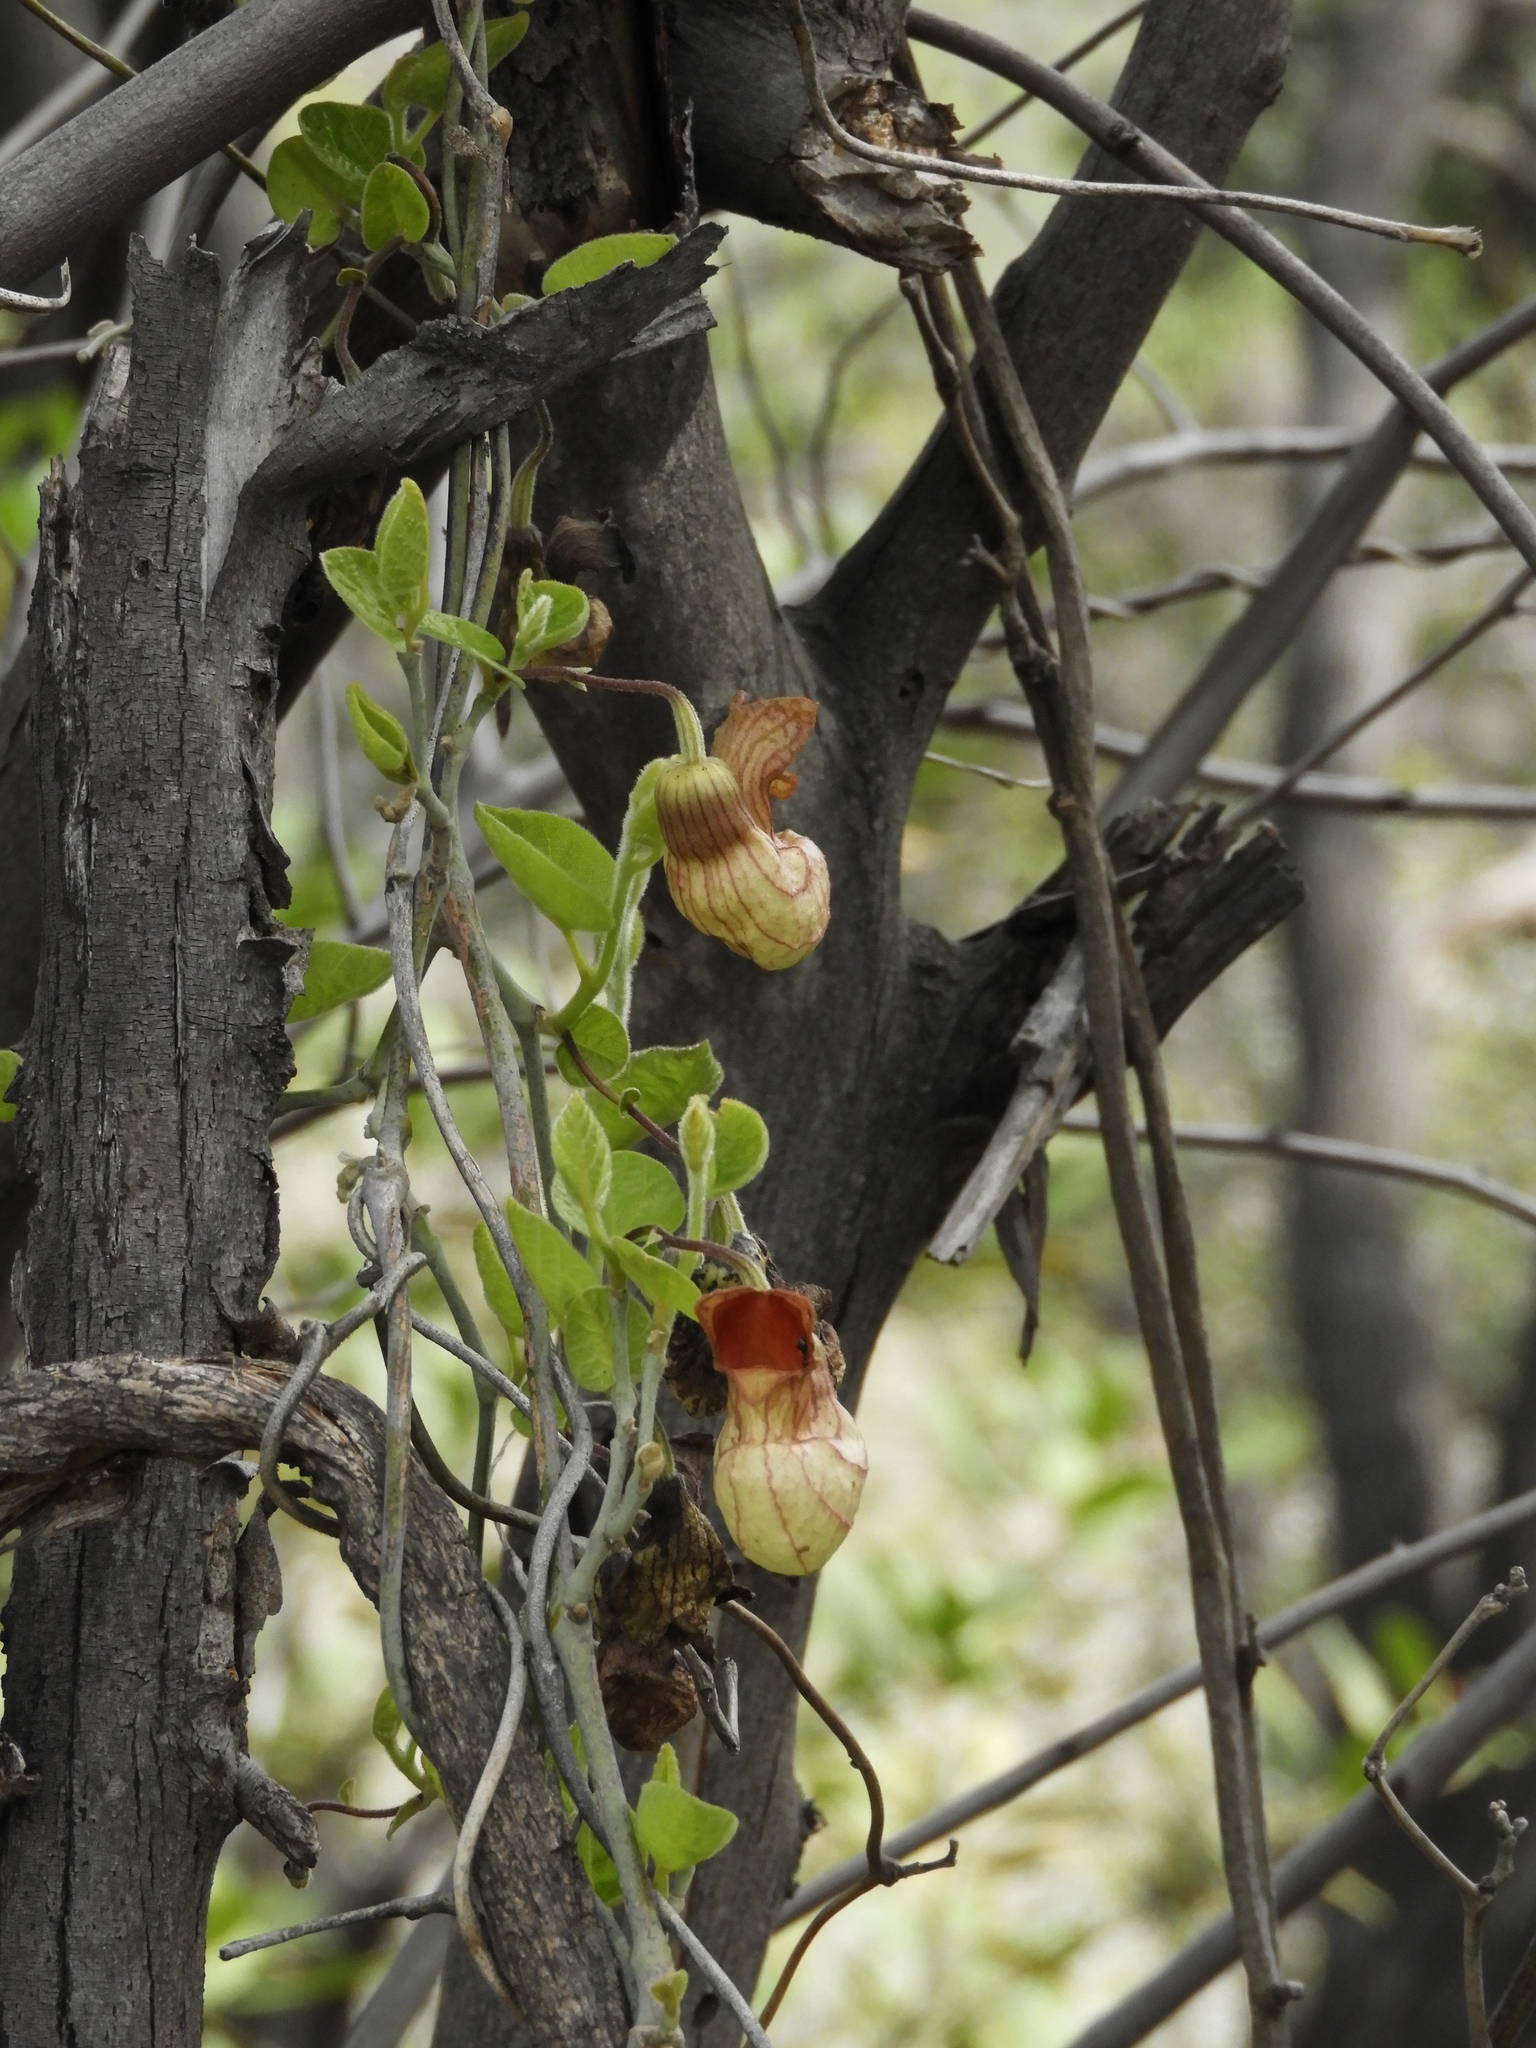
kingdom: Plantae
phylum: Tracheophyta
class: Magnoliopsida
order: Piperales
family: Aristolochiaceae
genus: Isotrema
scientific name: Isotrema californicum
